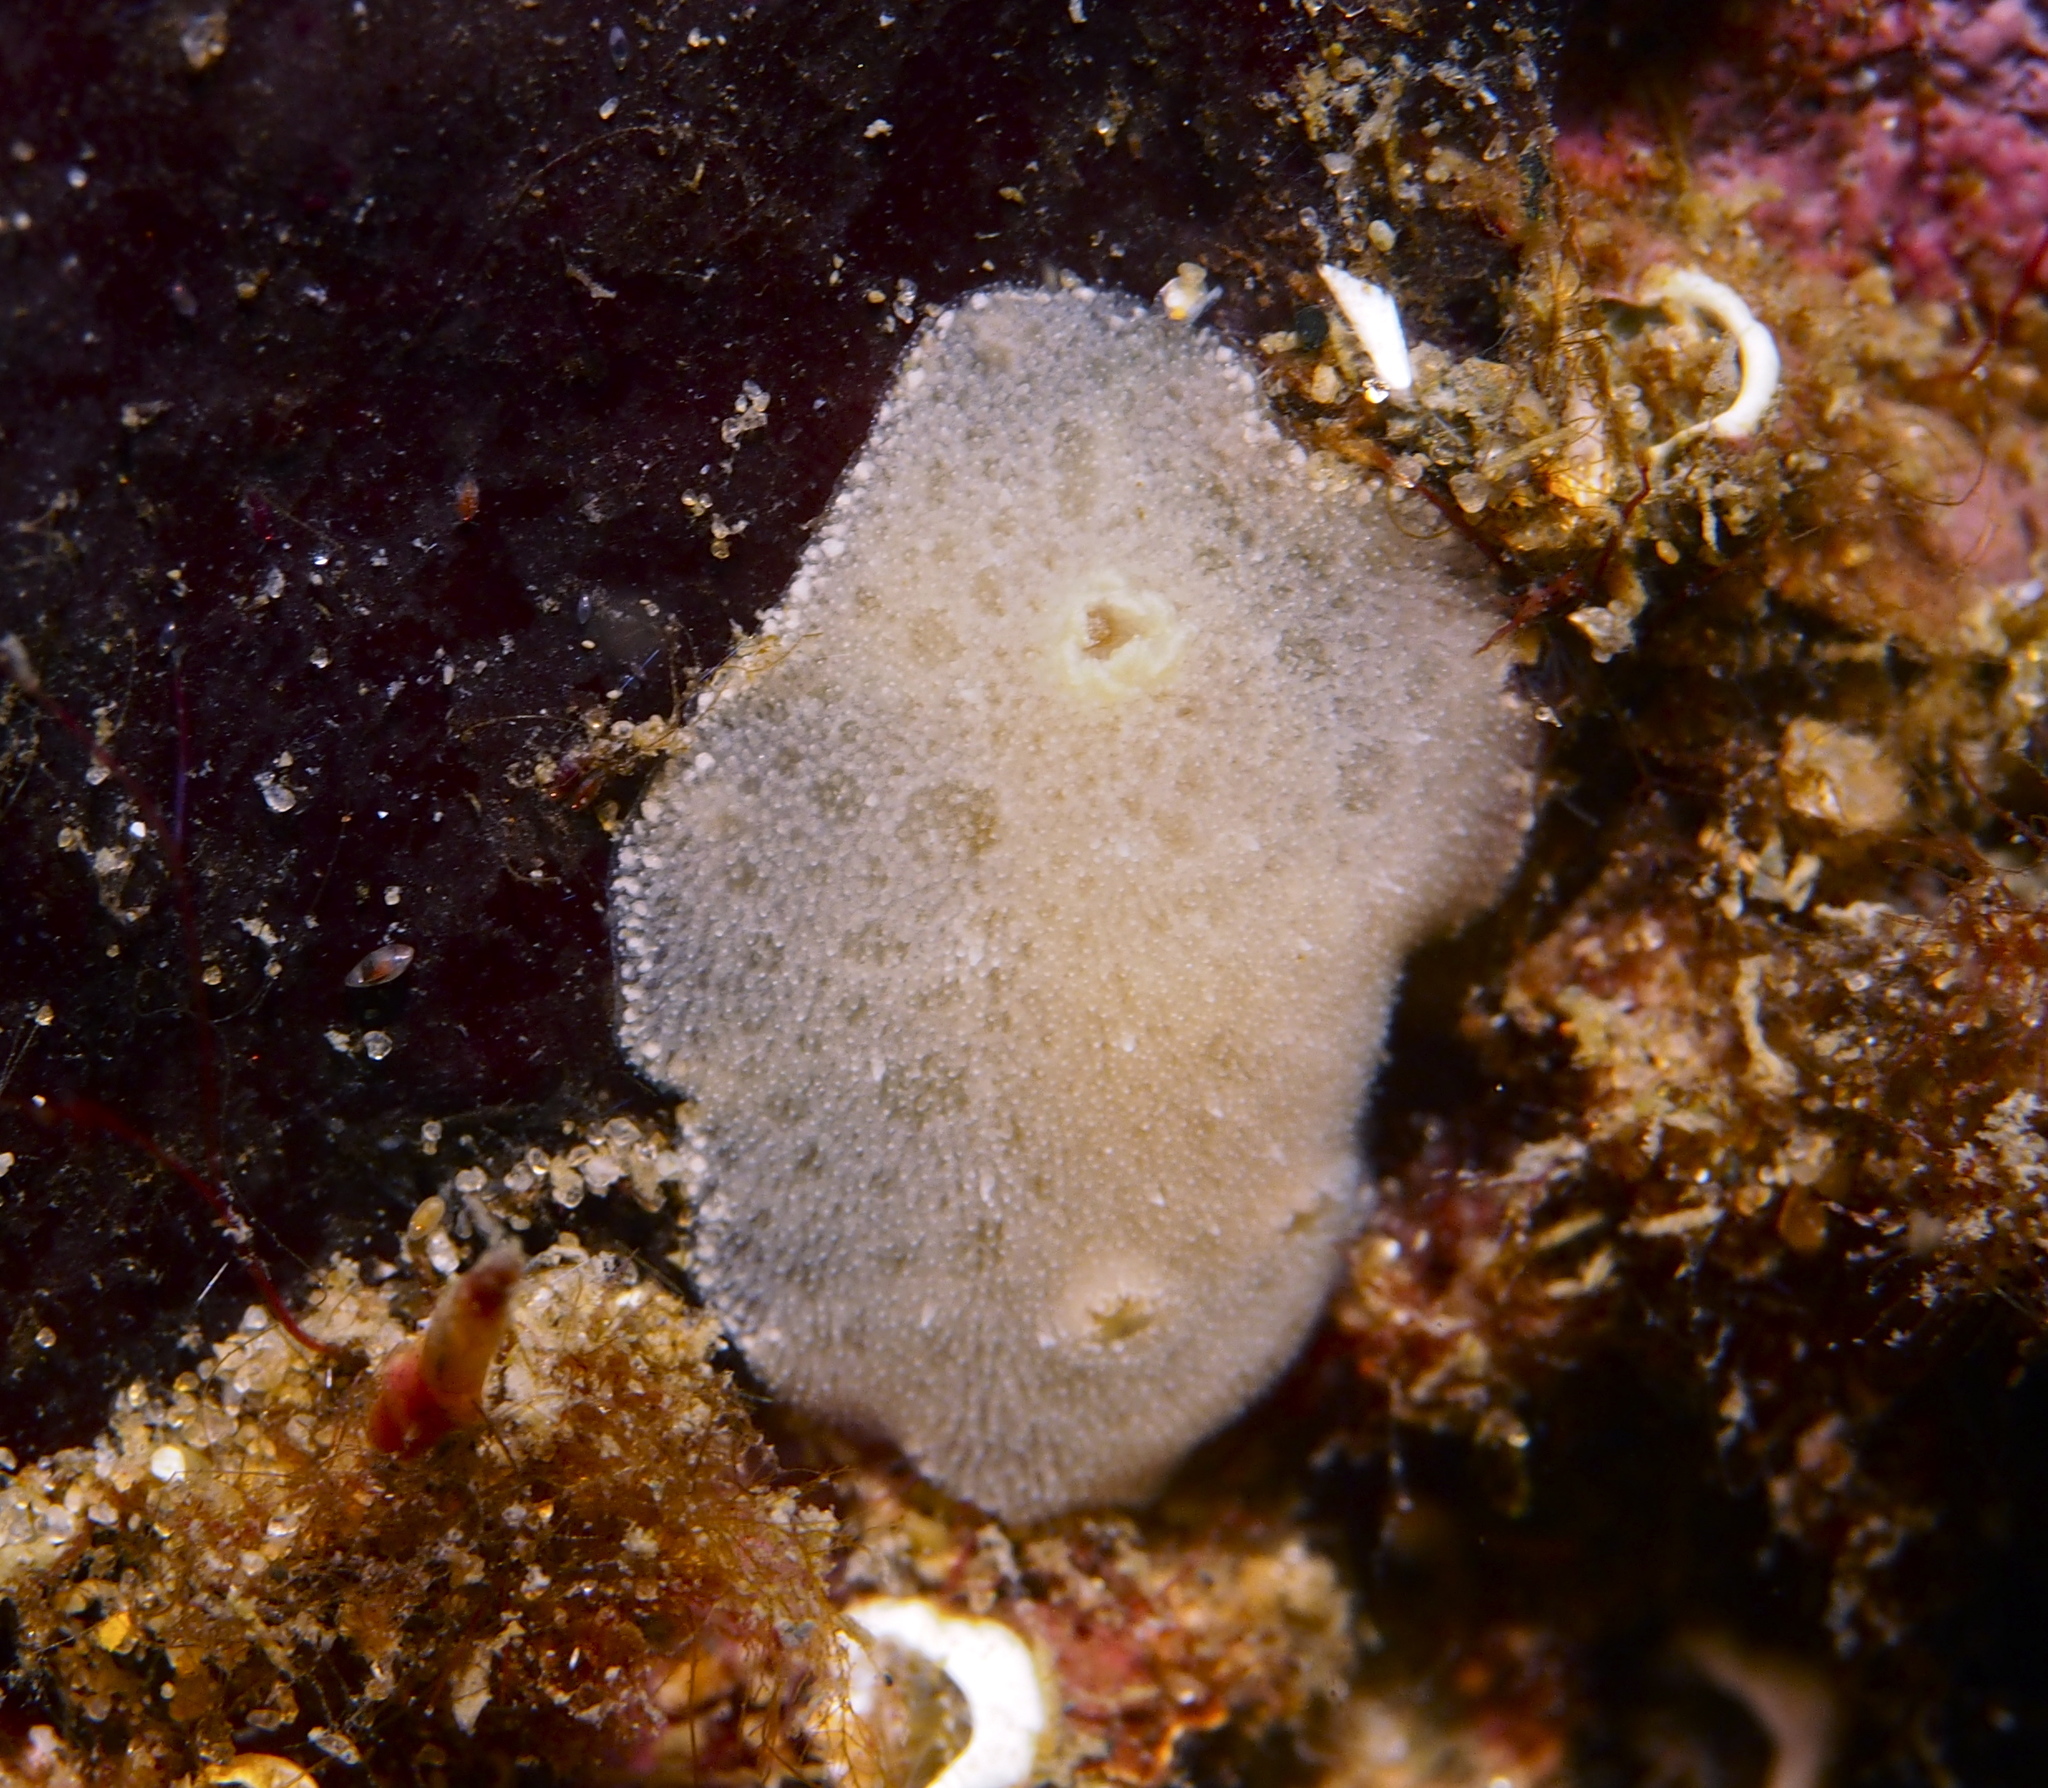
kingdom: Animalia
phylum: Mollusca
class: Gastropoda
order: Nudibranchia
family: Discodorididae
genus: Jorunna
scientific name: Jorunna tomentosa
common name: Grey sea slug
